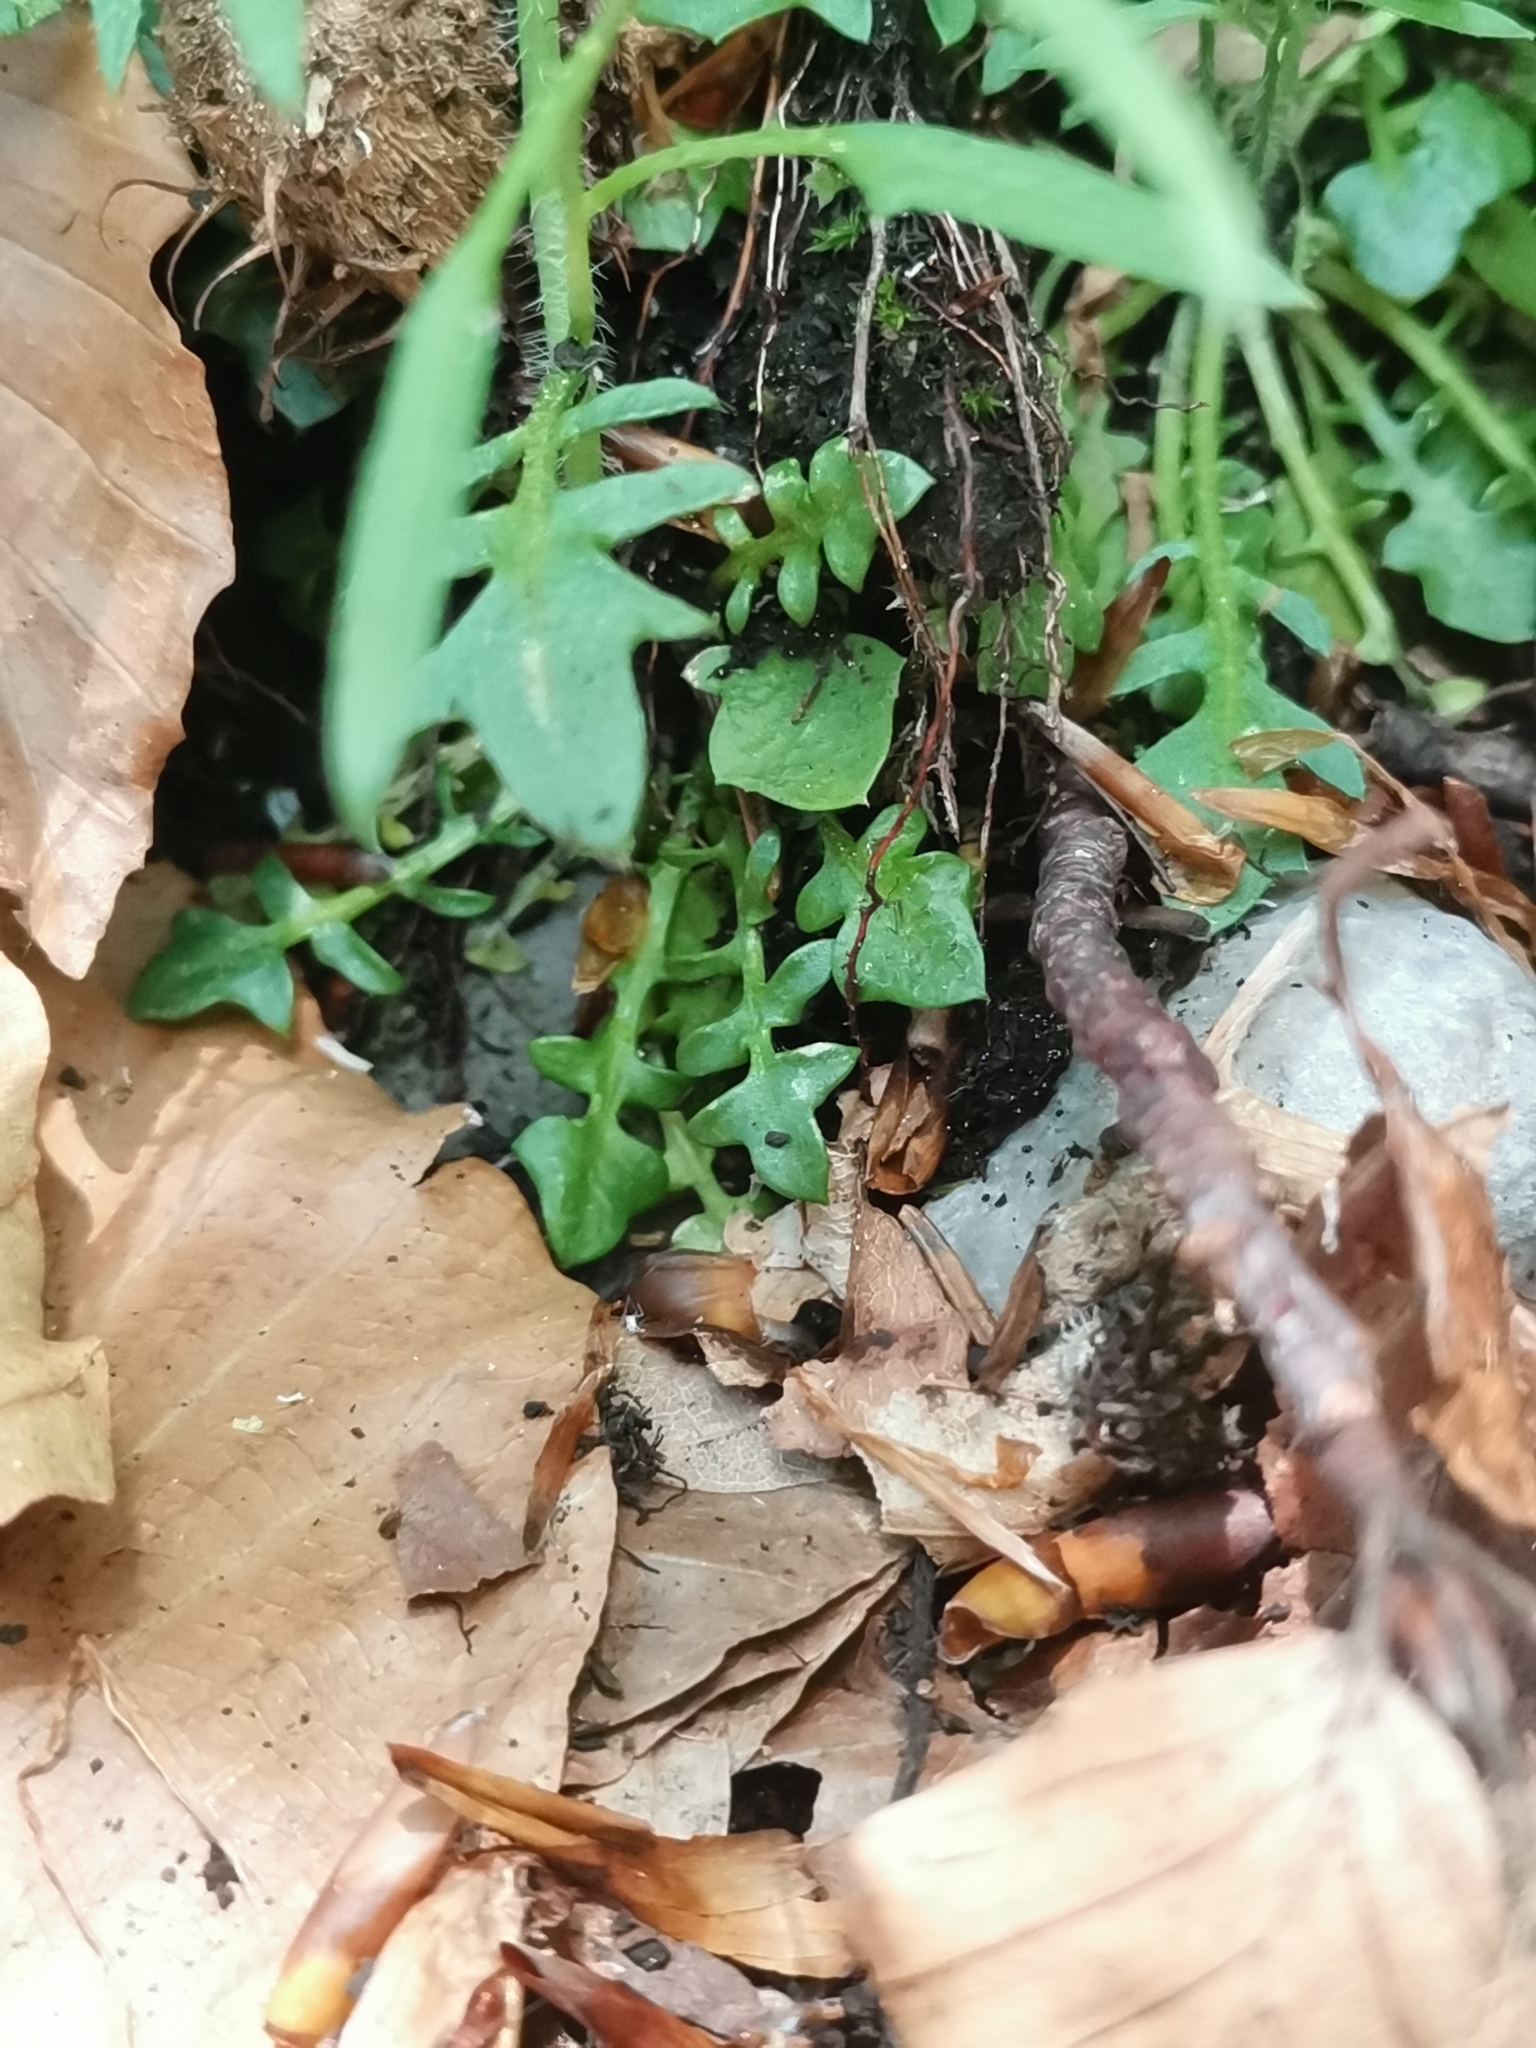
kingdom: Plantae
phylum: Tracheophyta
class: Magnoliopsida
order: Brassicales
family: Brassicaceae
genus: Arabidopsis
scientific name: Arabidopsis arenosa
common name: Sand rock-cress
